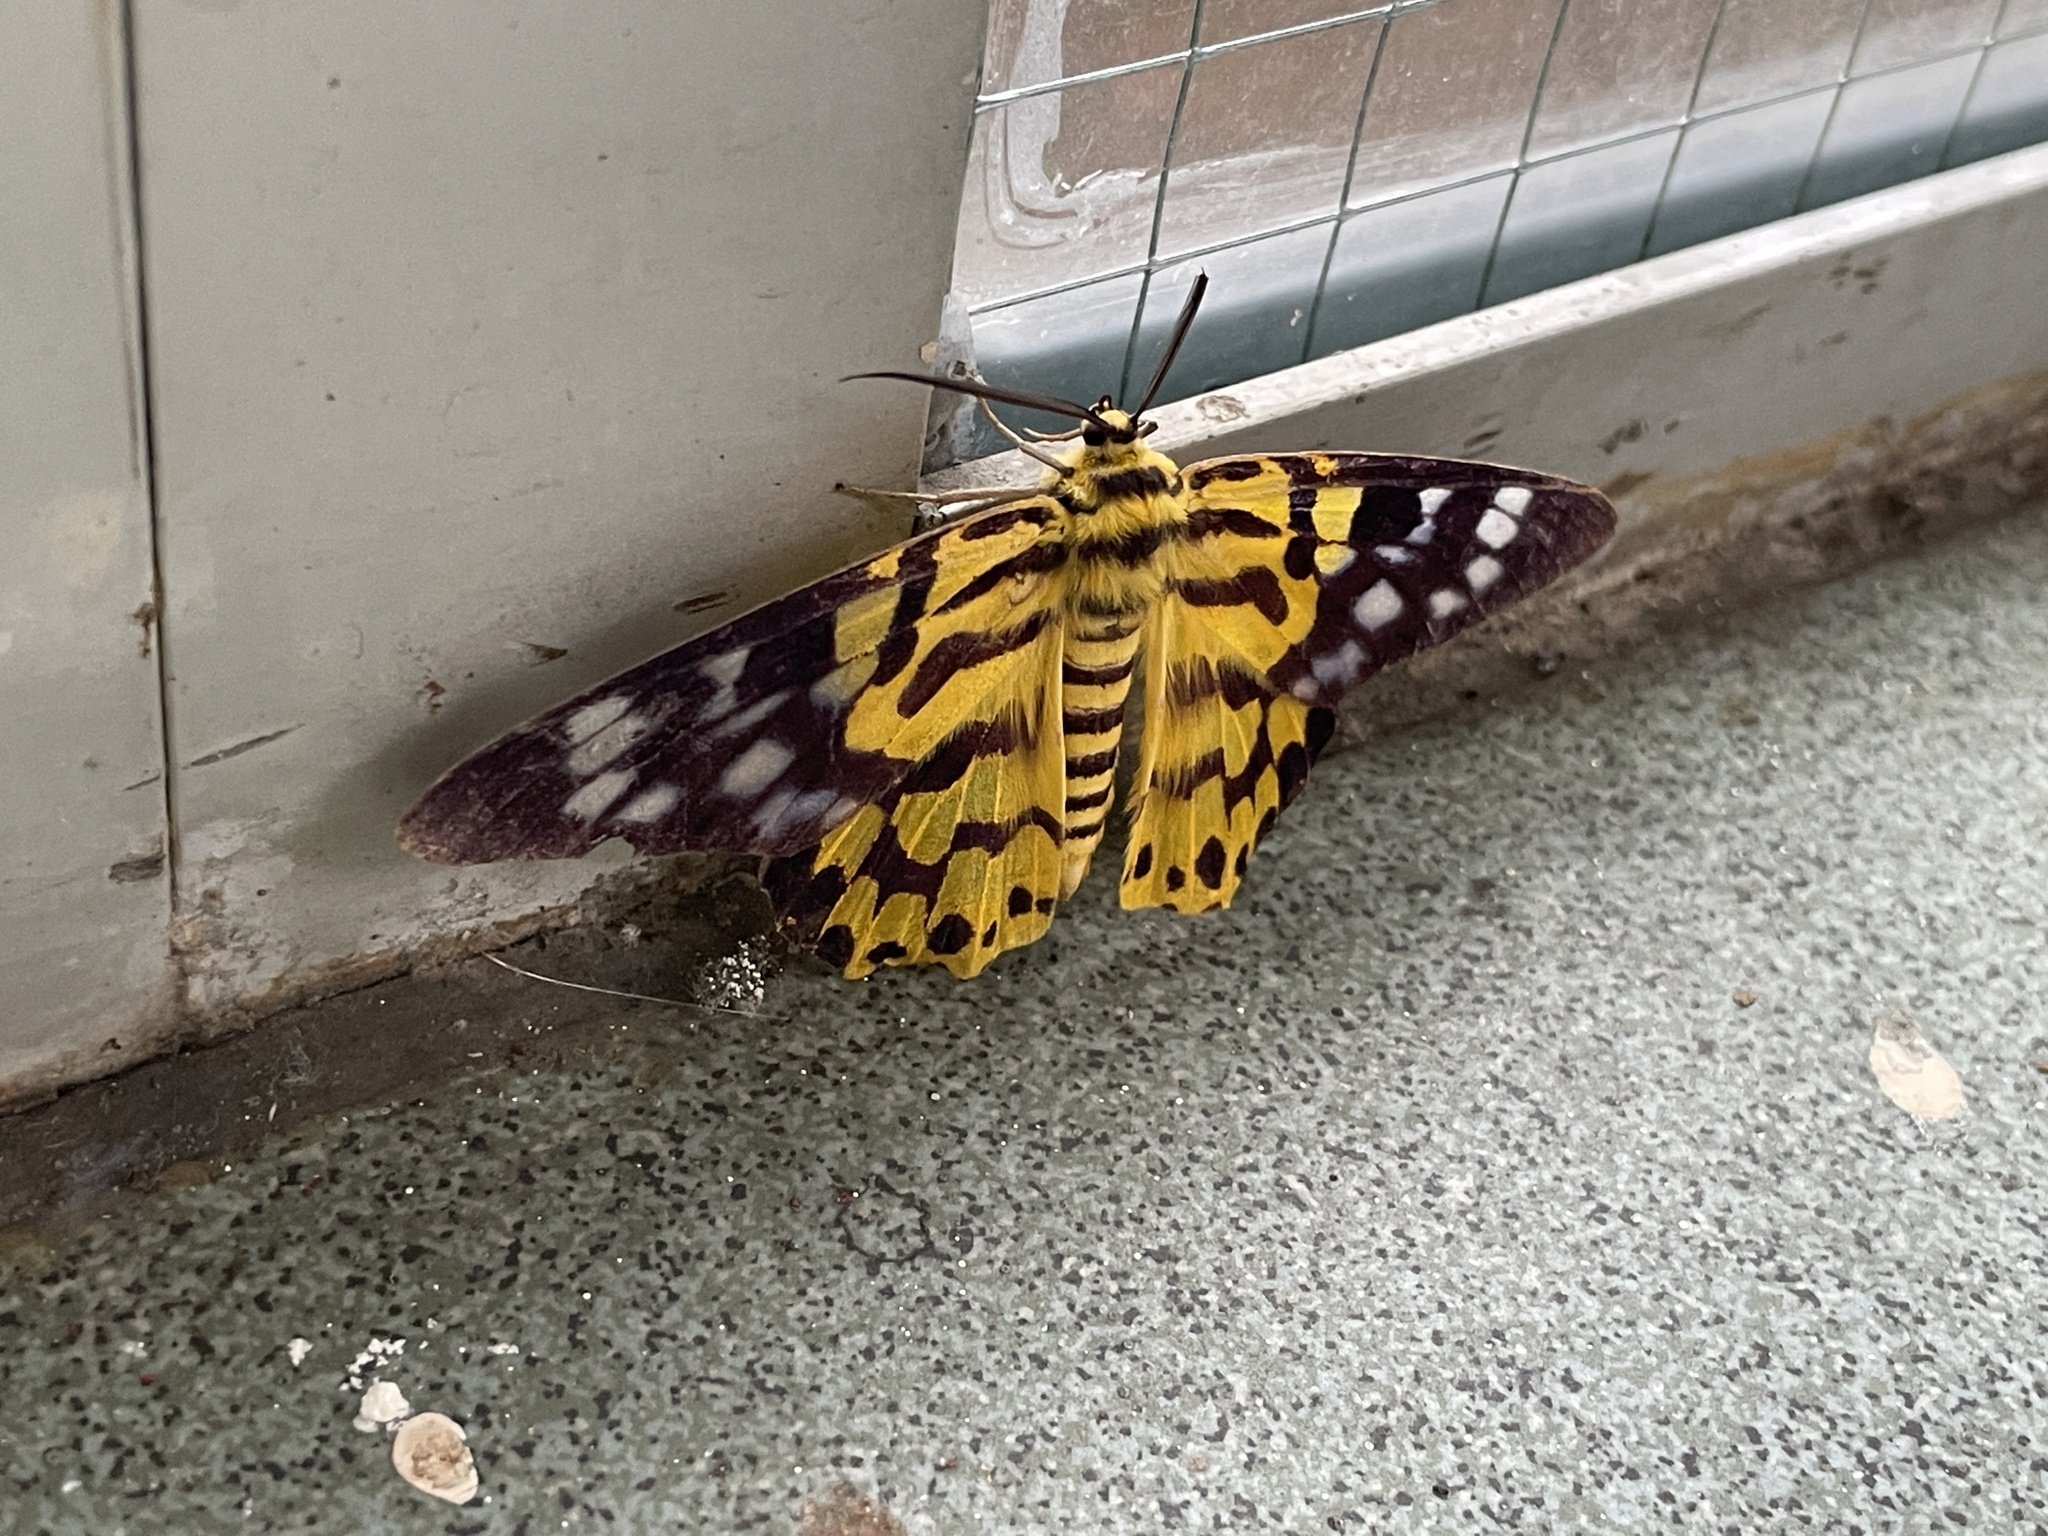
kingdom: Animalia
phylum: Arthropoda
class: Insecta
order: Lepidoptera
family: Geometridae
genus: Dysphania
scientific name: Dysphania militaris
